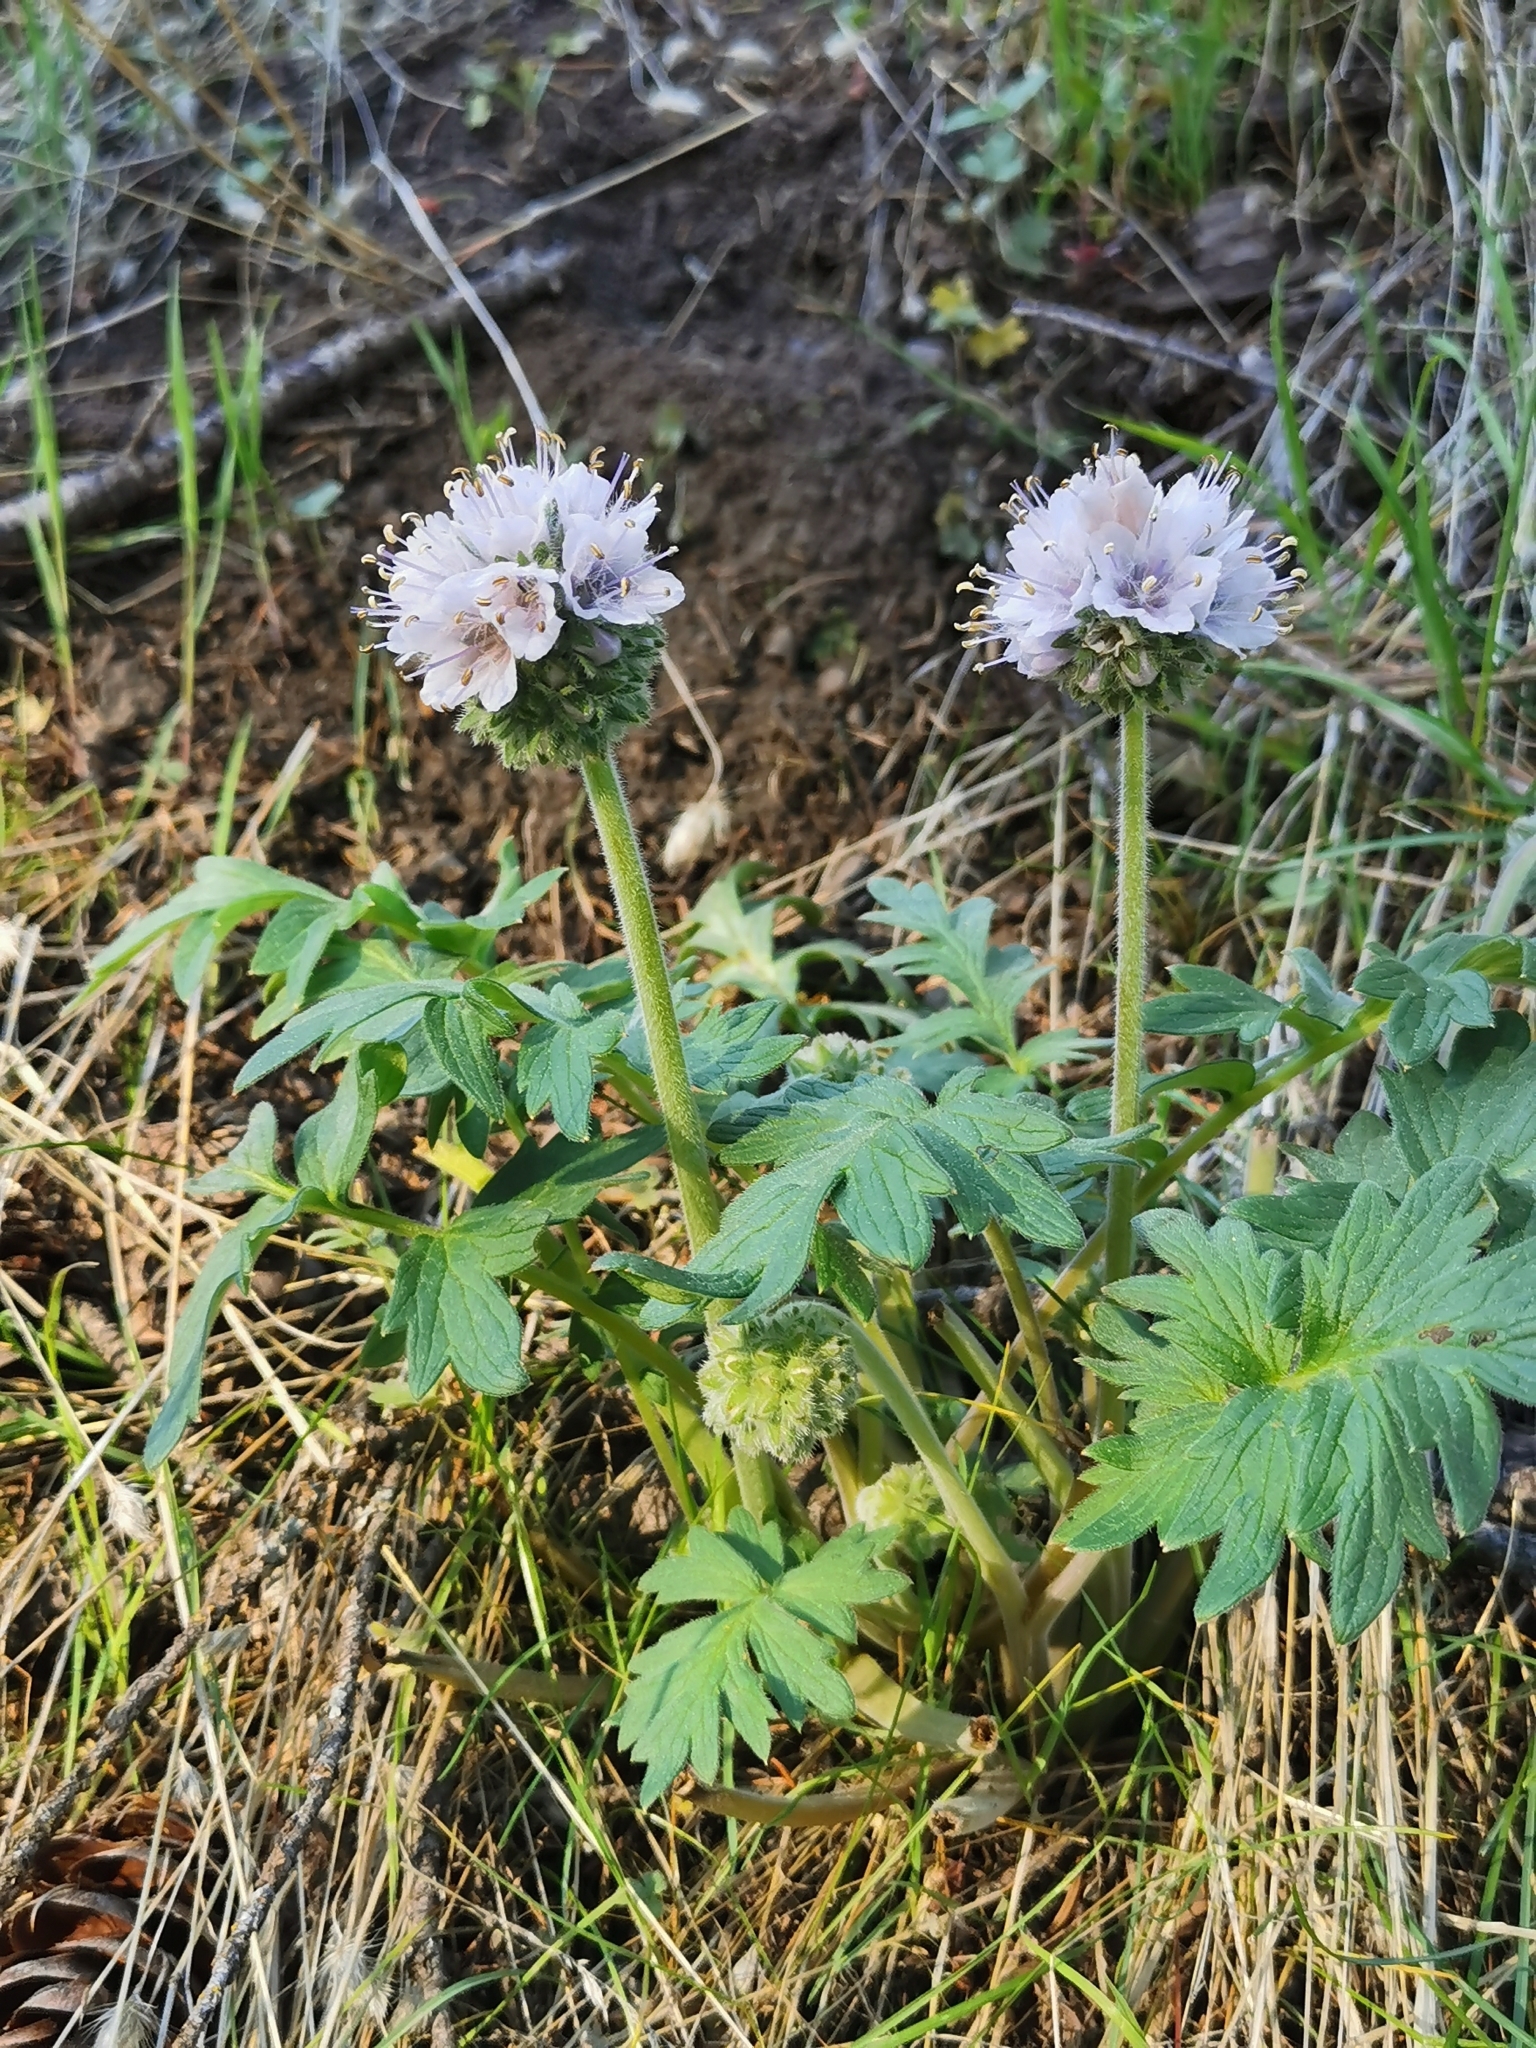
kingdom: Plantae
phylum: Tracheophyta
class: Magnoliopsida
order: Boraginales
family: Hydrophyllaceae
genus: Hydrophyllum
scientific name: Hydrophyllum occidentale
